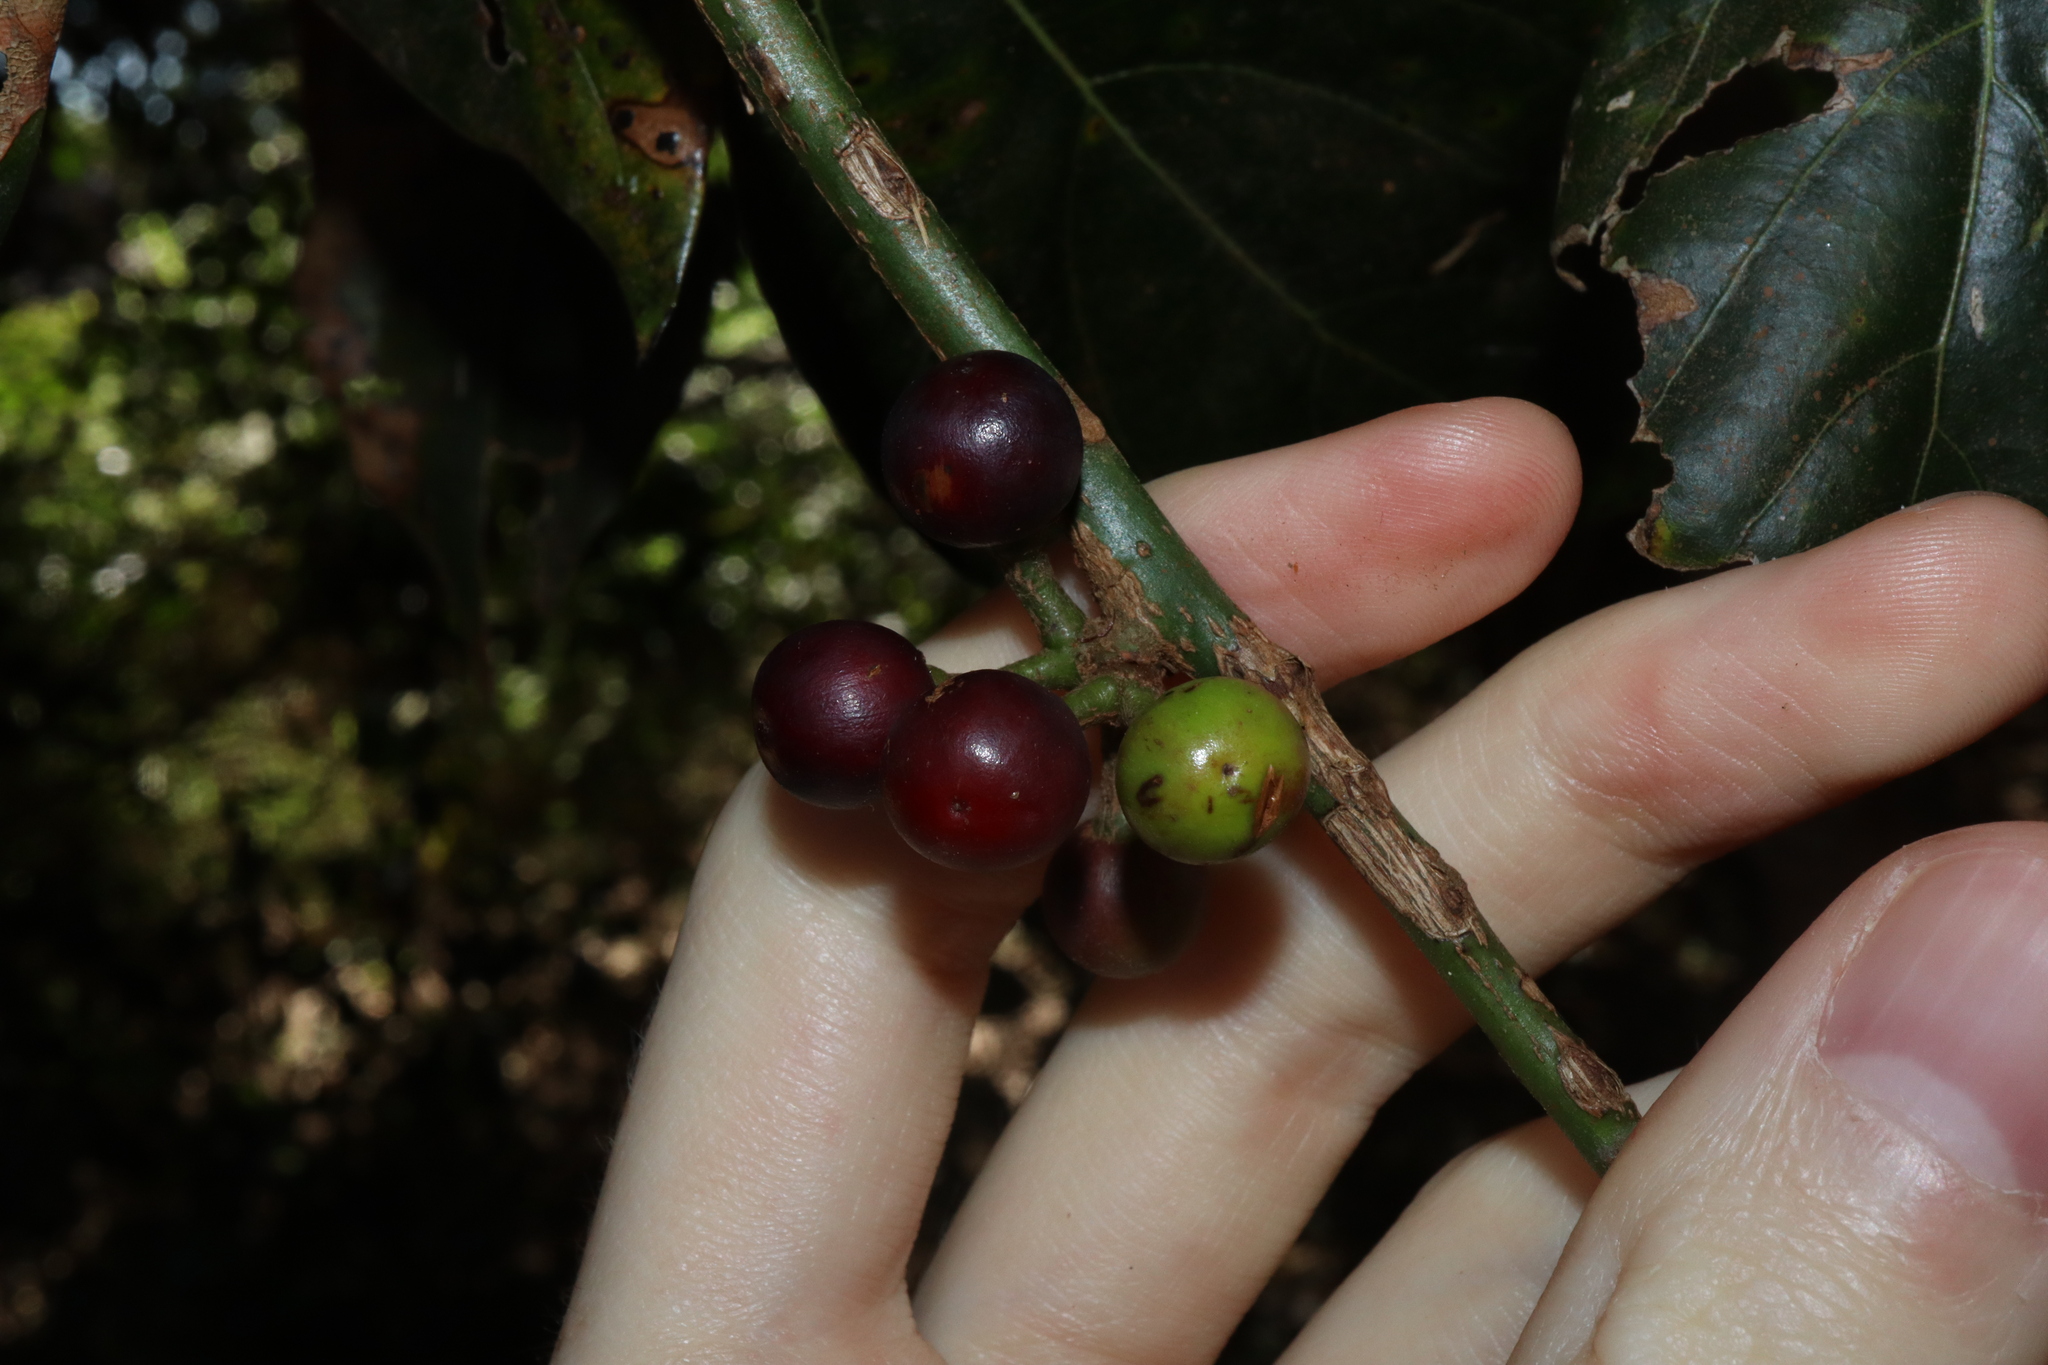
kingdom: Plantae
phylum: Tracheophyta
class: Magnoliopsida
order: Laurales
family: Lauraceae
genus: Neolitsea
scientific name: Neolitsea dealbata
